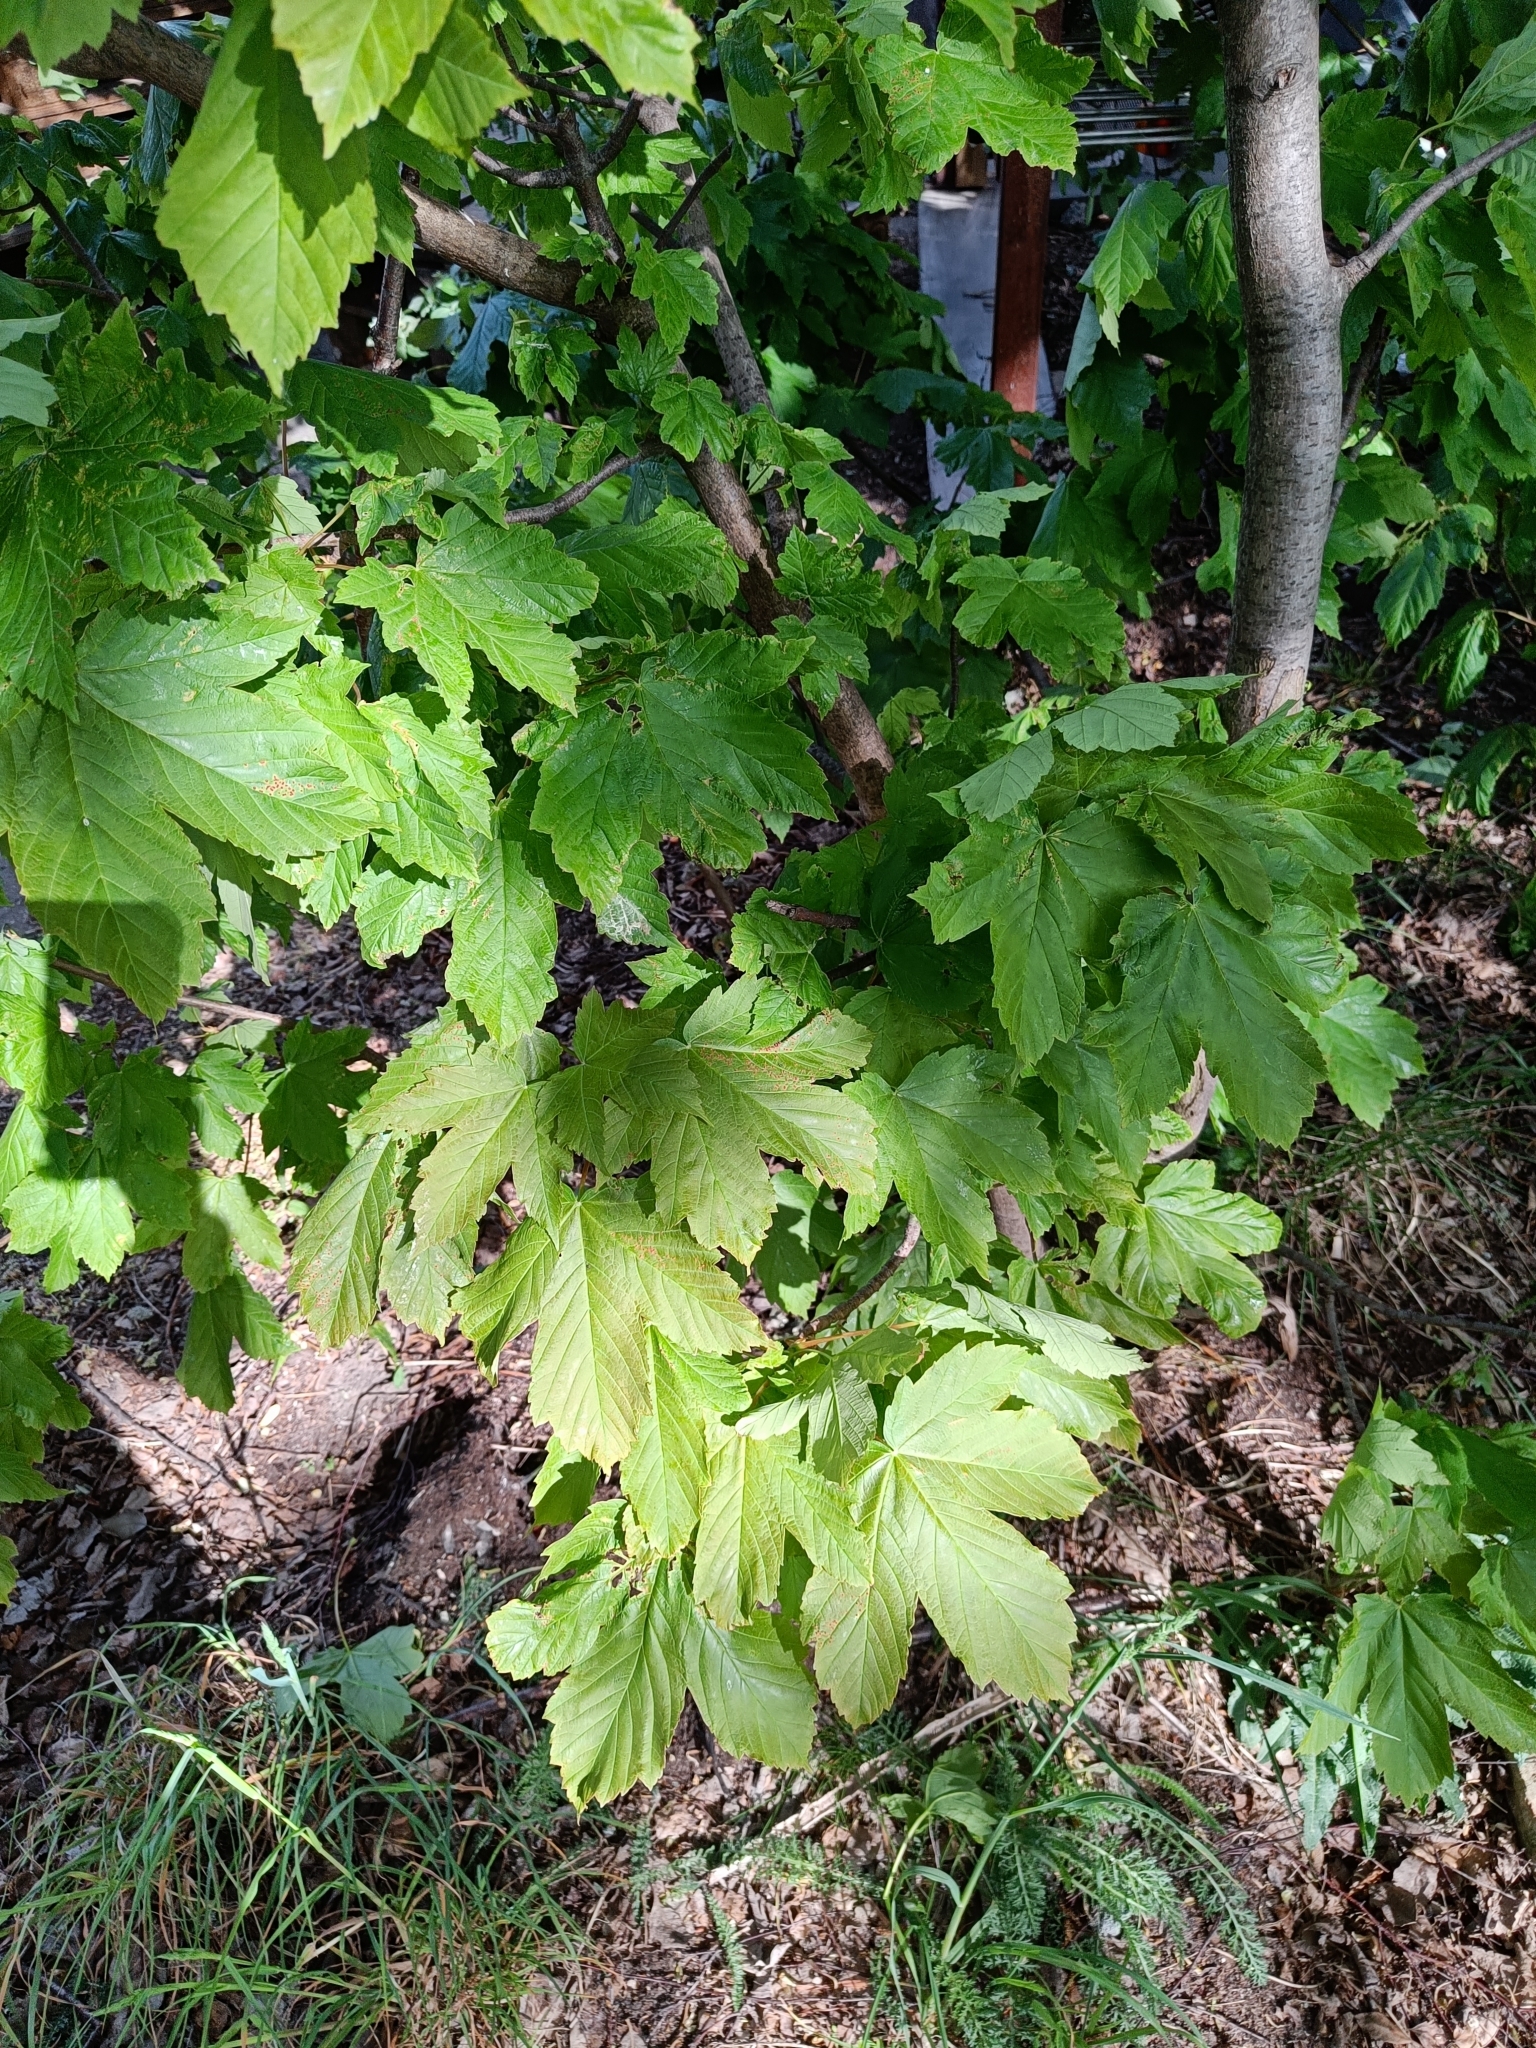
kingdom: Plantae
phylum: Tracheophyta
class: Magnoliopsida
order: Sapindales
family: Sapindaceae
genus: Acer
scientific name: Acer pseudoplatanus
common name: Sycamore
